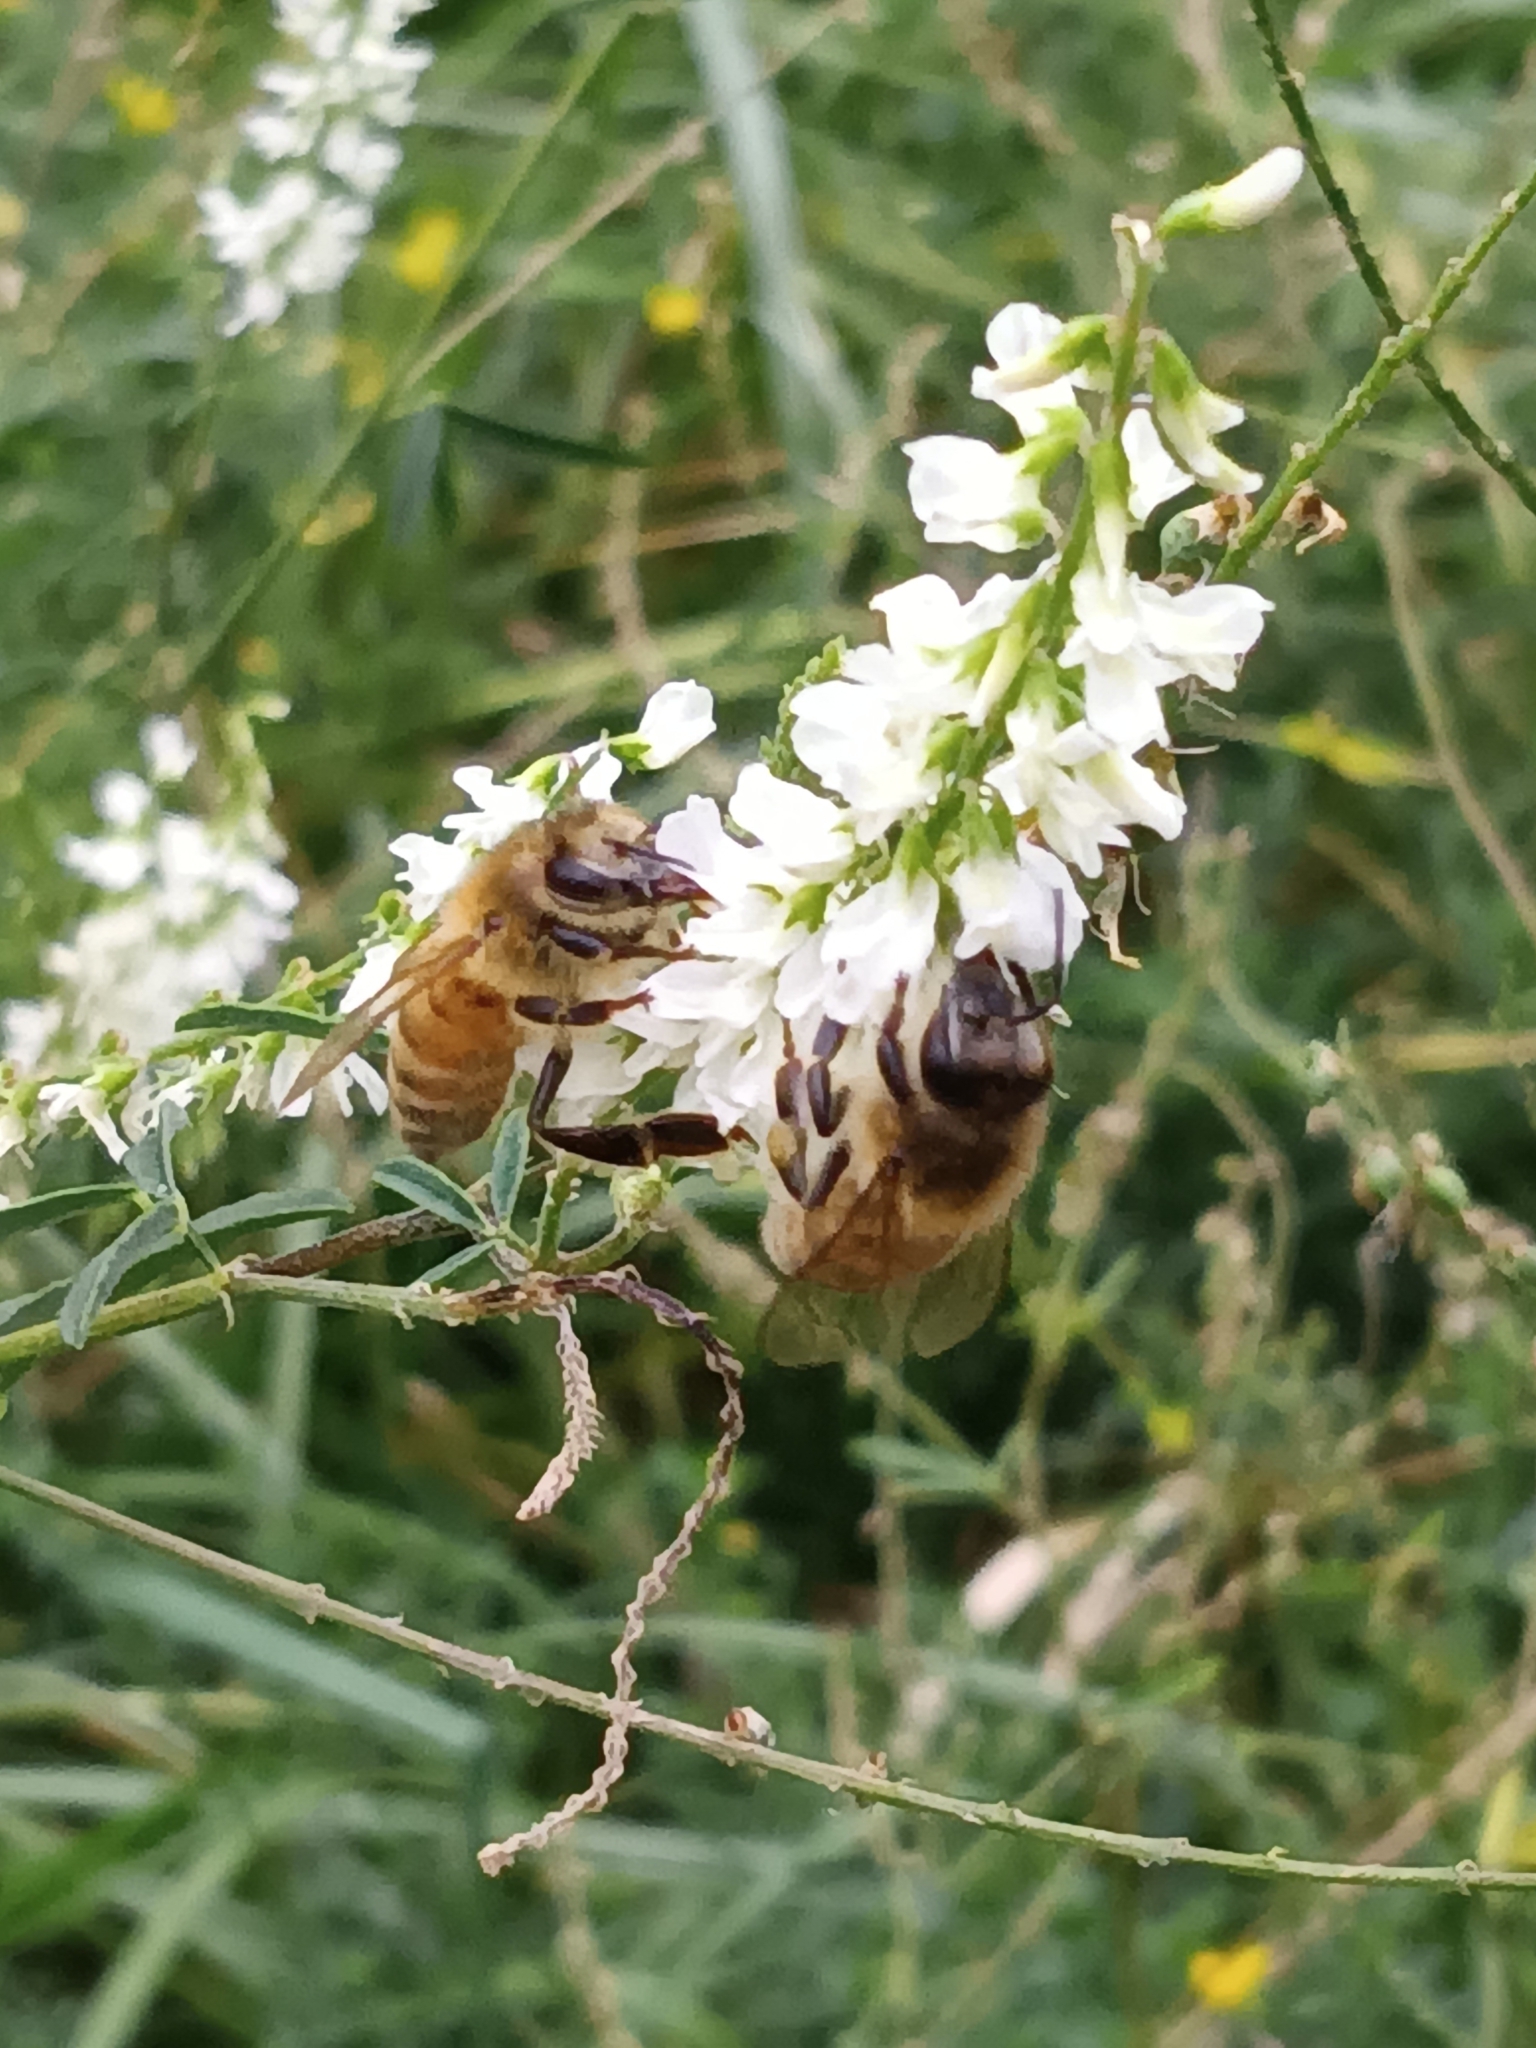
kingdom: Animalia
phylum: Arthropoda
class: Insecta
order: Hymenoptera
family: Apidae
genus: Apis
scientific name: Apis mellifera
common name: Honey bee
